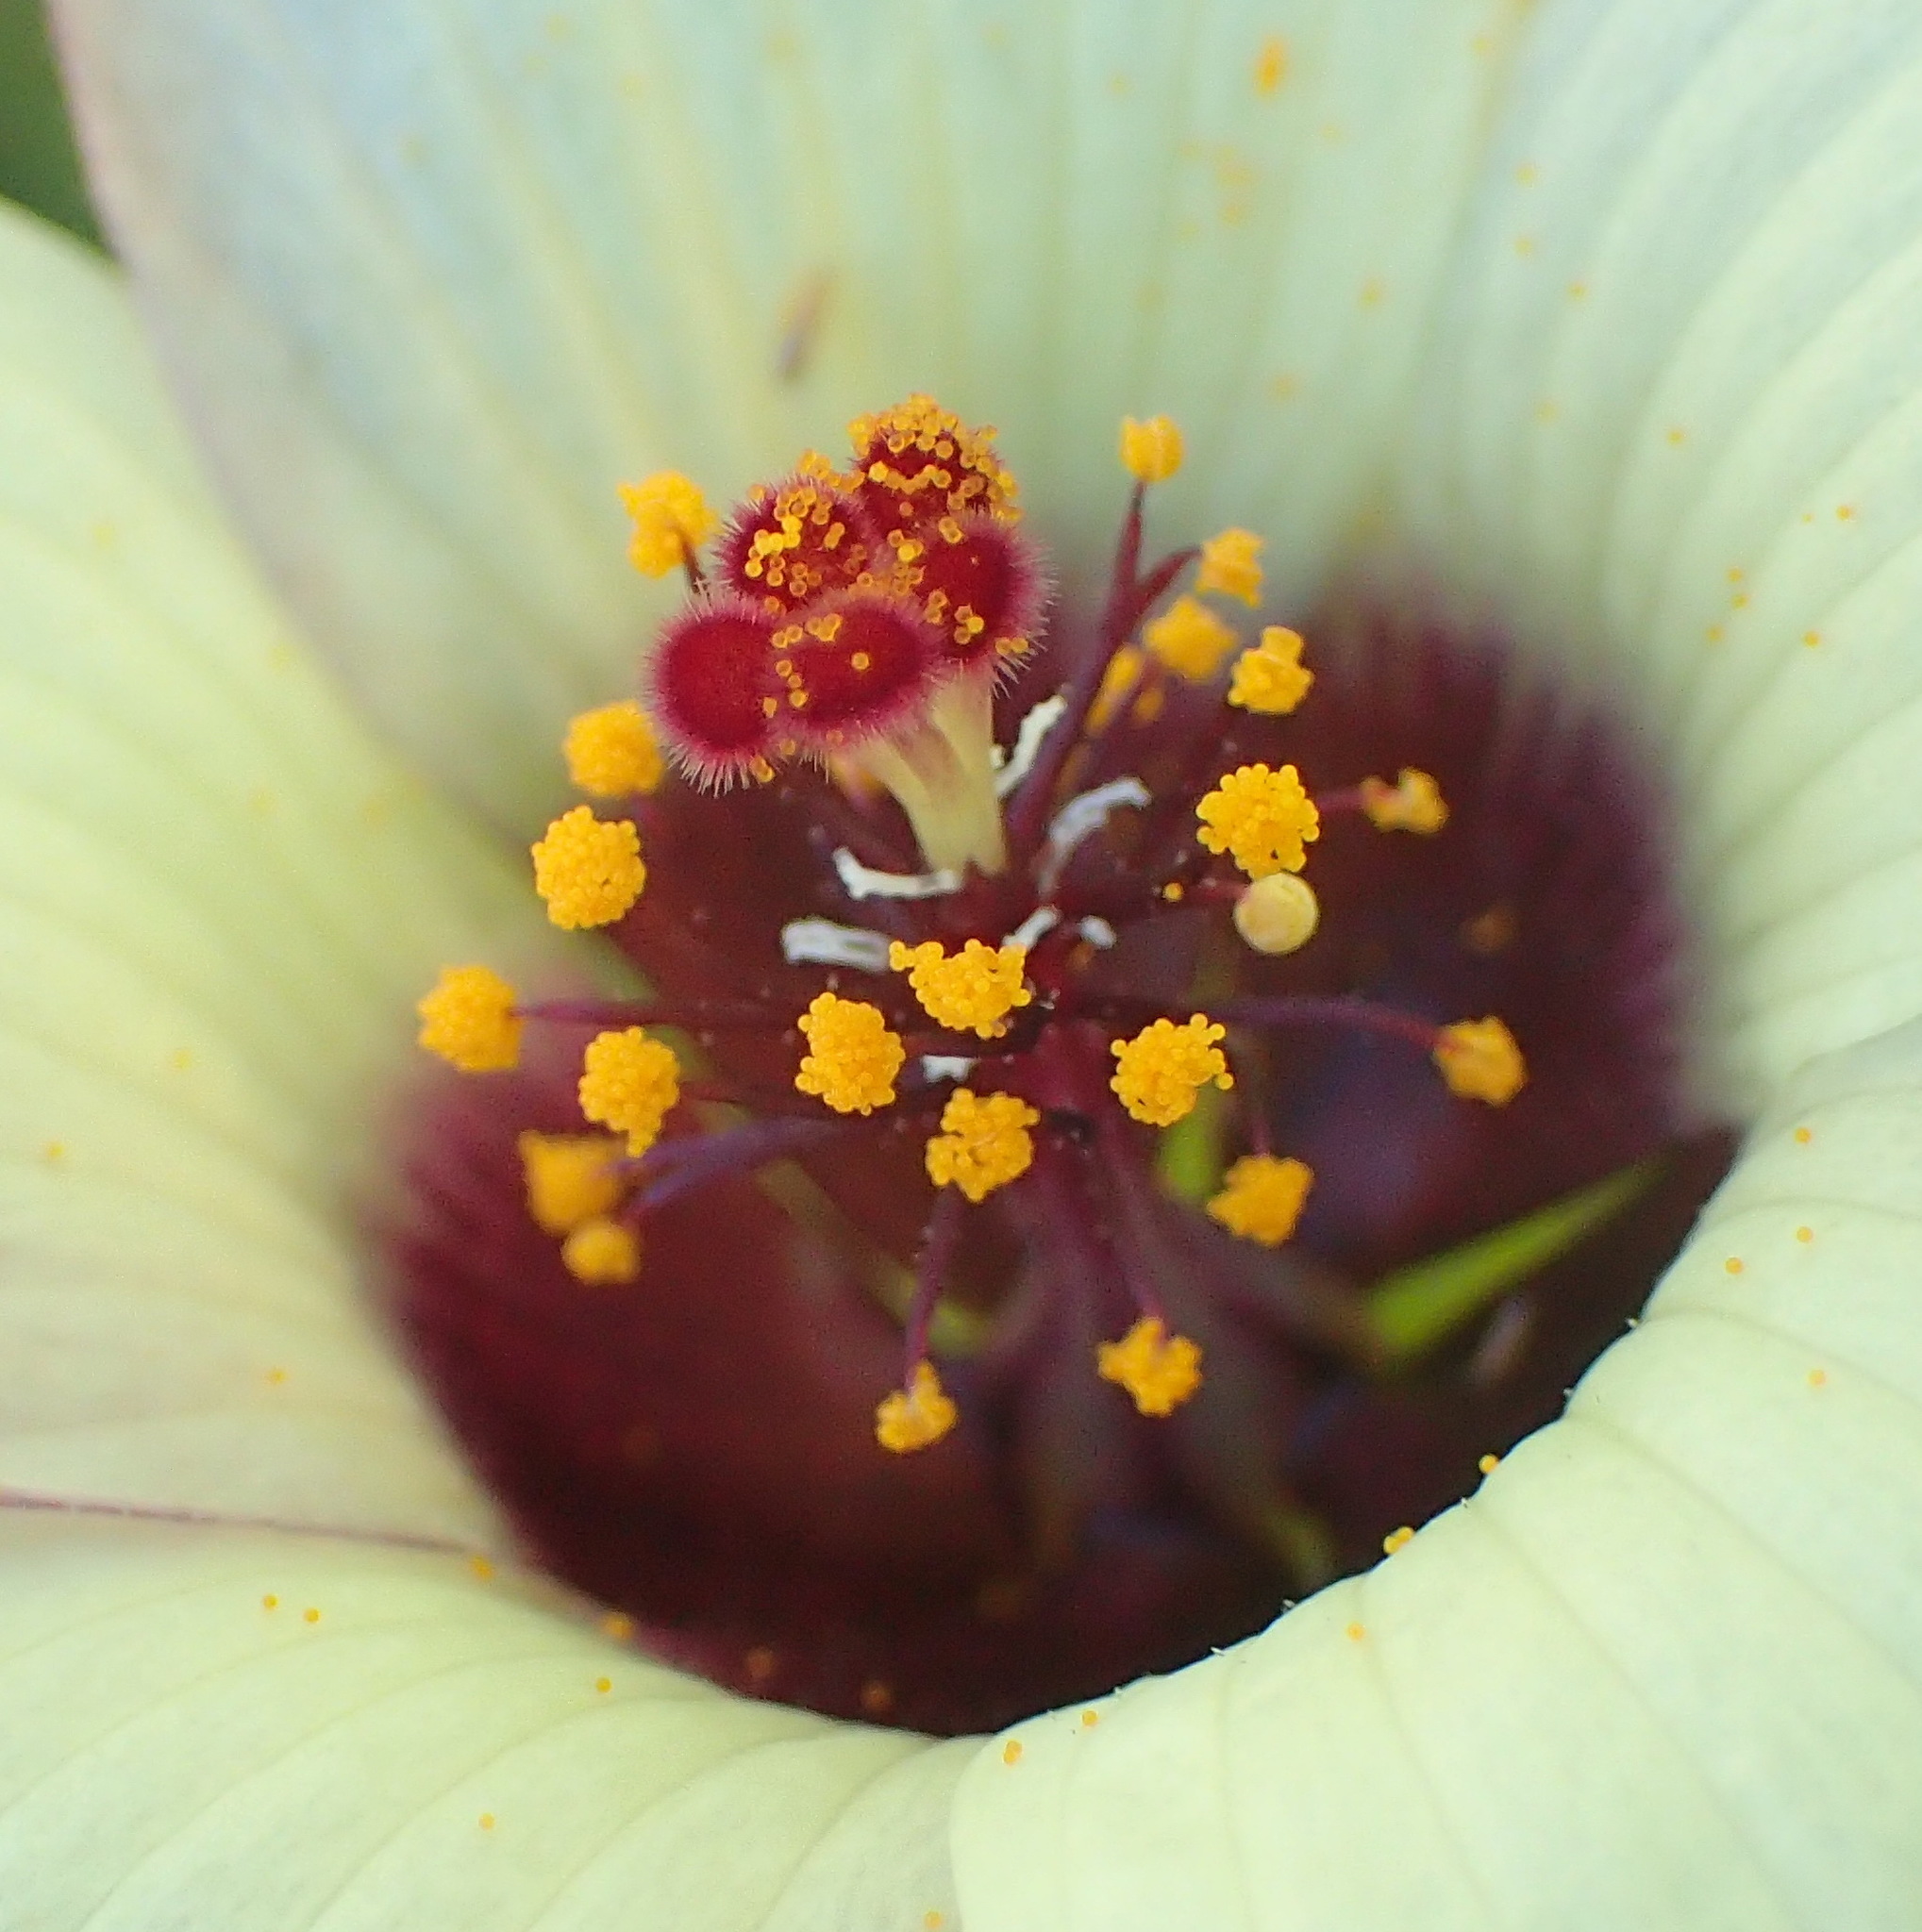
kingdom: Plantae
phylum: Tracheophyta
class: Magnoliopsida
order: Malvales
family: Malvaceae
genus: Hibiscus
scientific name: Hibiscus trionum
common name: Bladder ketmia
